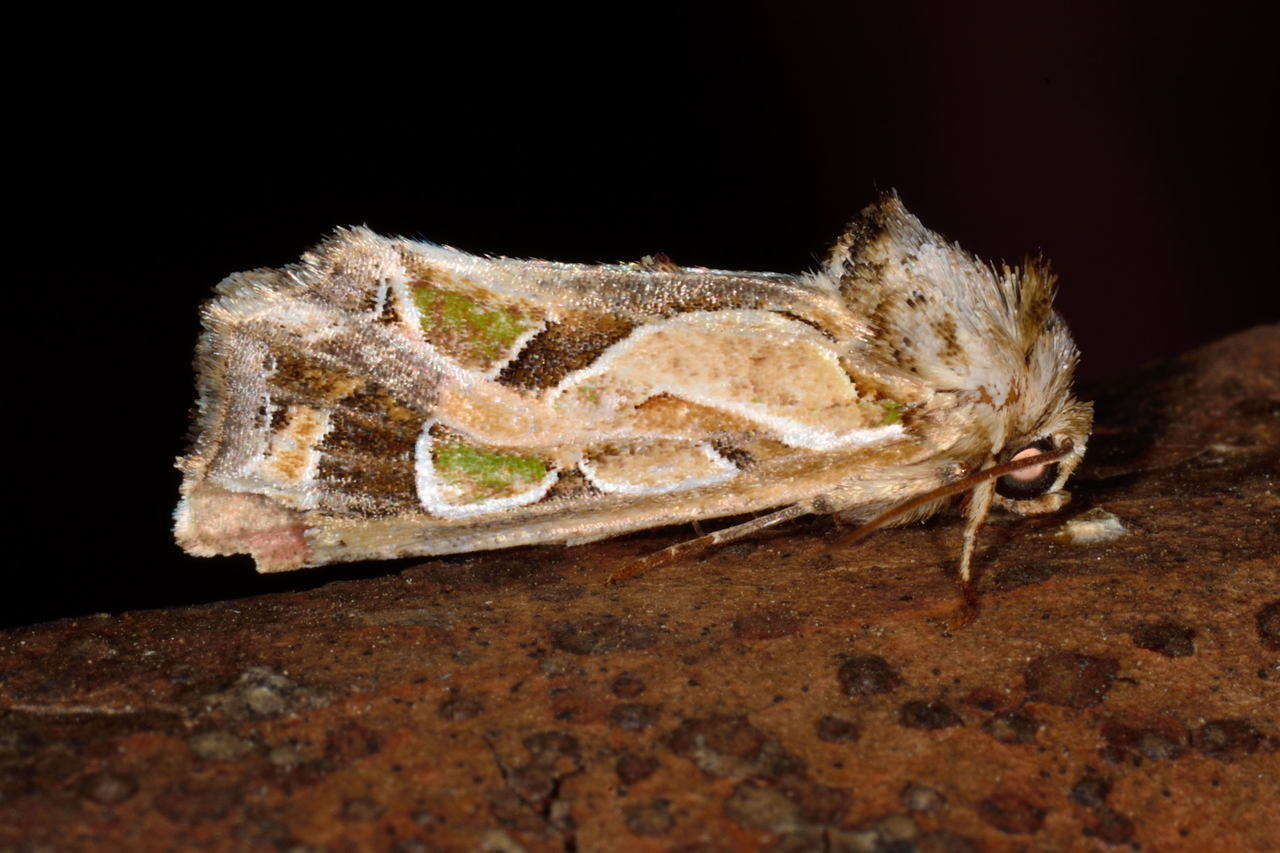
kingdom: Animalia
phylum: Arthropoda
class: Insecta
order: Lepidoptera
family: Noctuidae
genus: Cosmodes
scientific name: Cosmodes elegans
